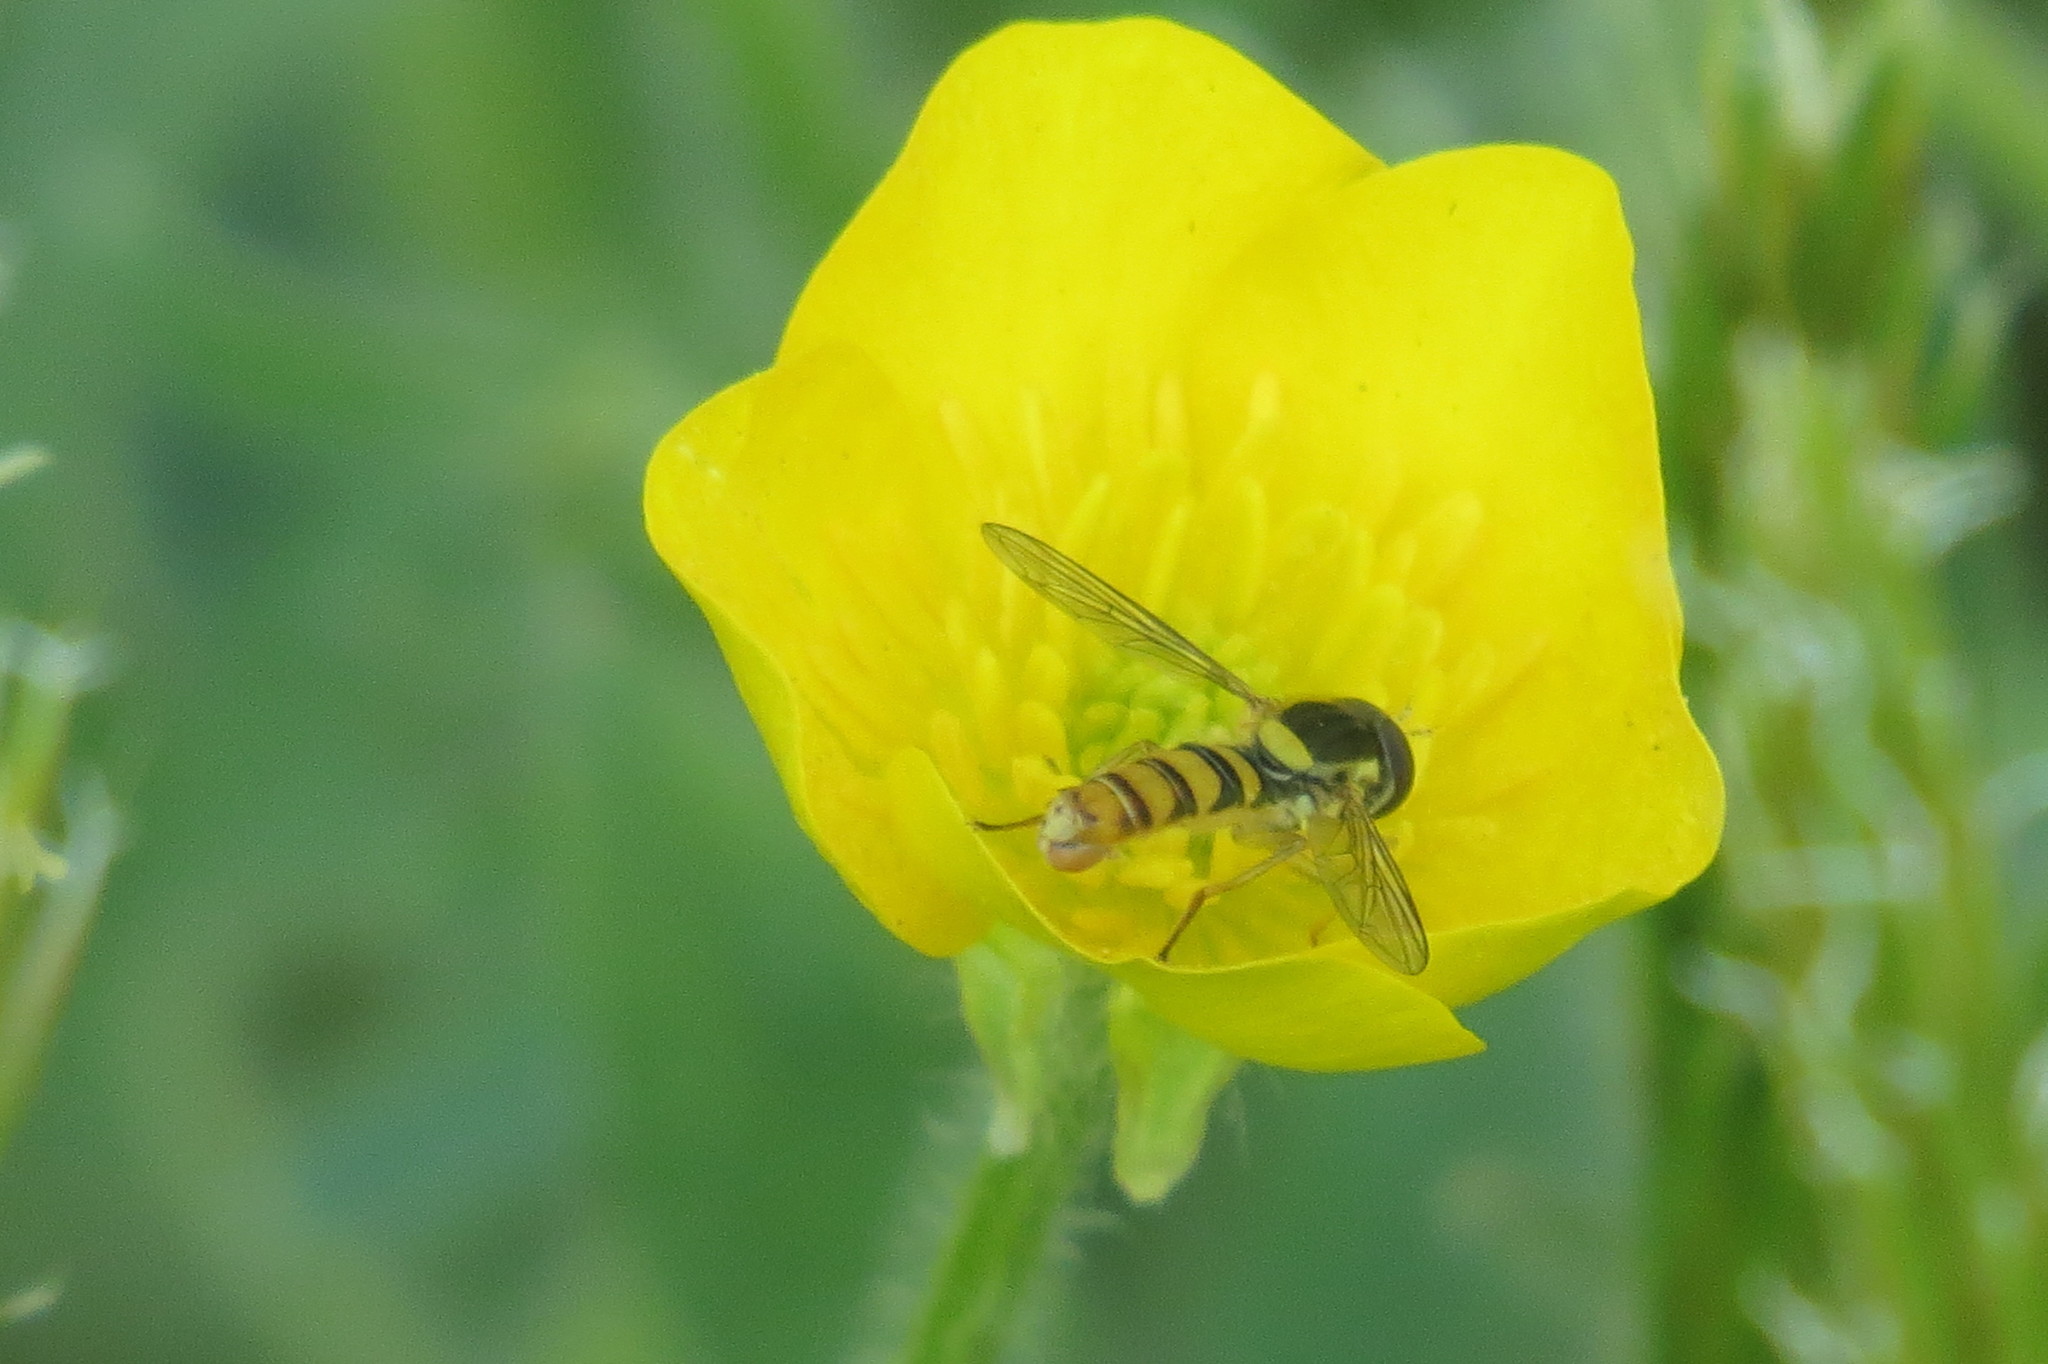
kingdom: Animalia
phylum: Arthropoda
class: Insecta
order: Diptera
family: Syrphidae
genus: Sphaerophoria
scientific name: Sphaerophoria
